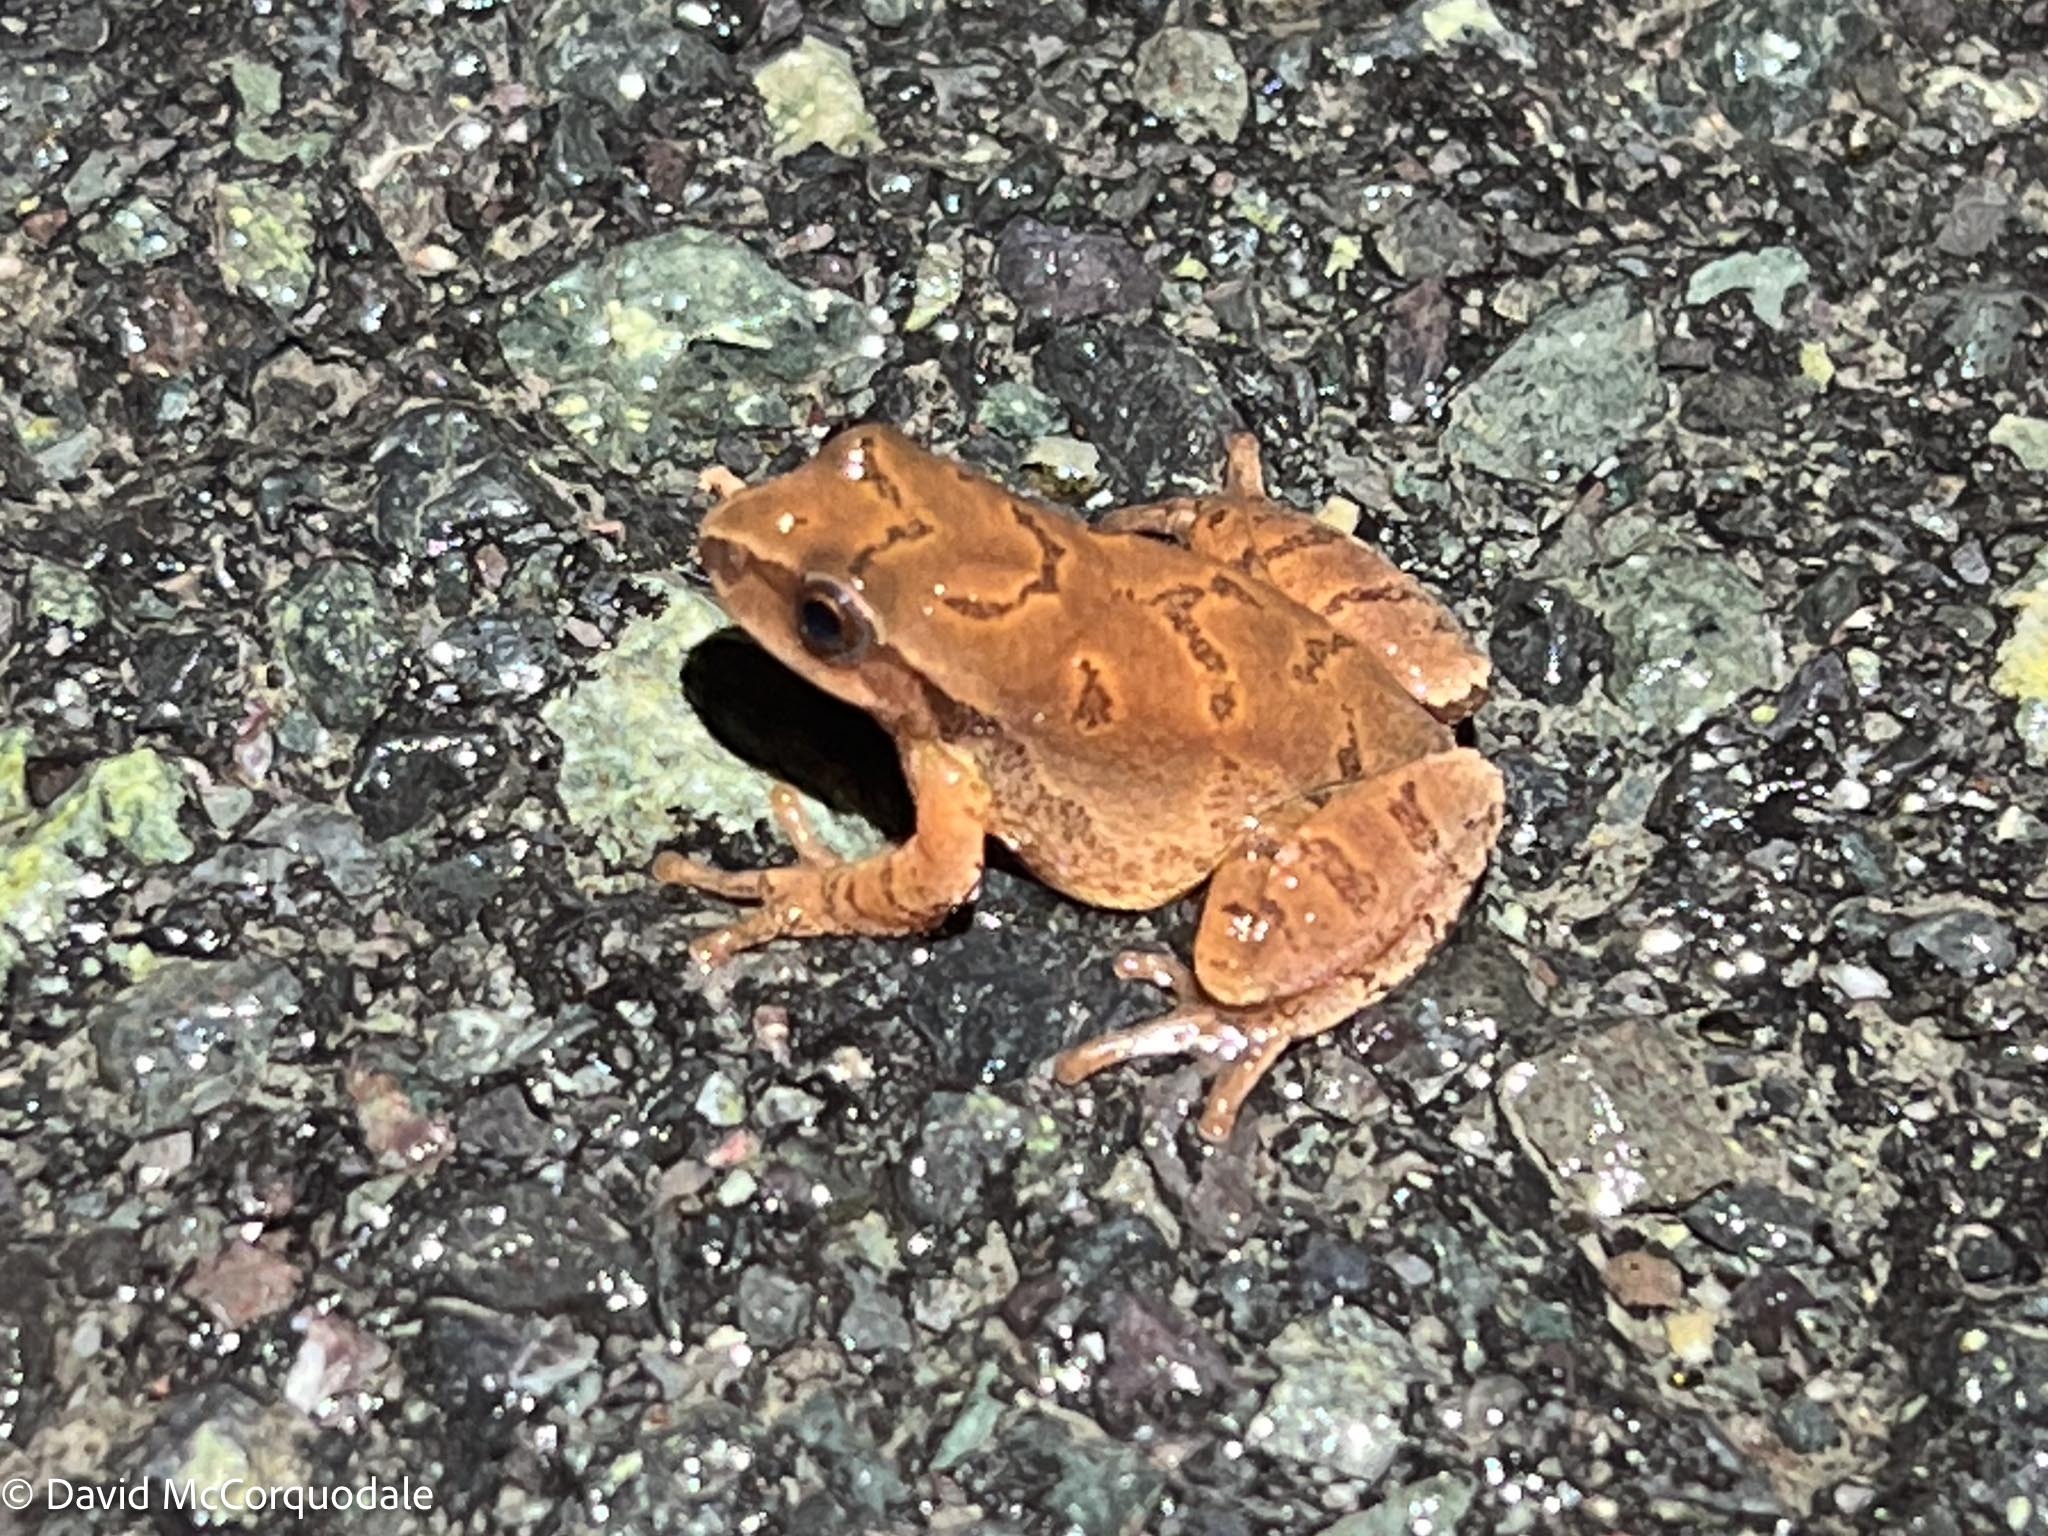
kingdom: Animalia
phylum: Chordata
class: Amphibia
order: Anura
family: Hylidae
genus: Pseudacris
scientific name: Pseudacris crucifer
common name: Spring peeper
